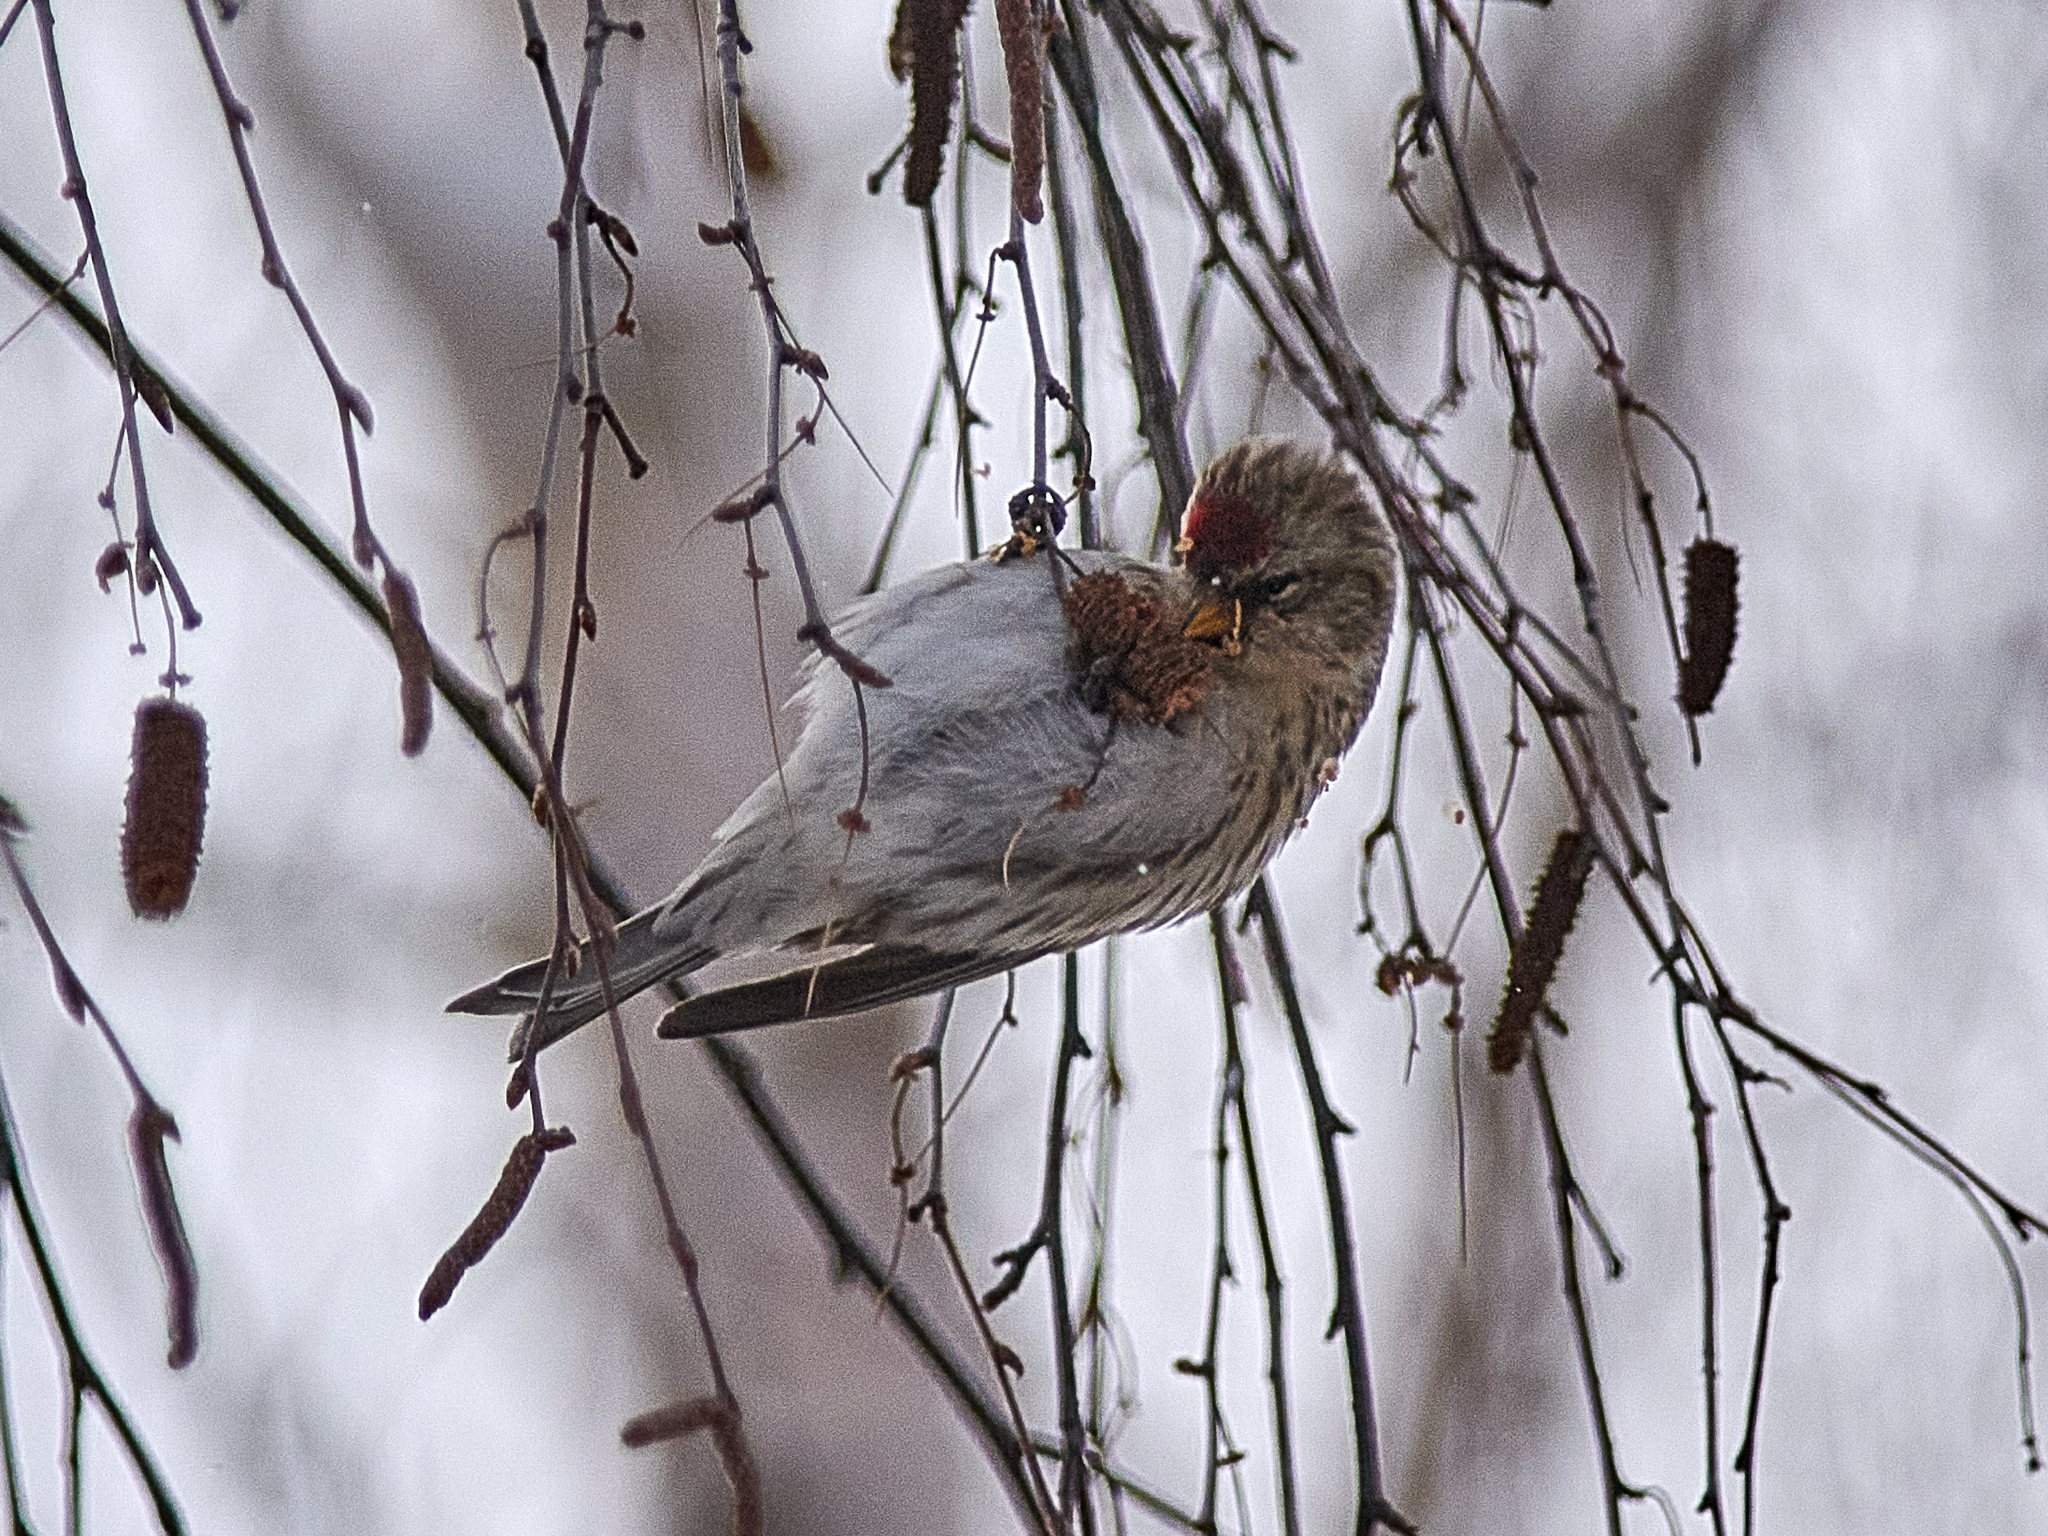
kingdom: Animalia
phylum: Chordata
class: Aves
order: Passeriformes
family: Fringillidae
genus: Acanthis
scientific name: Acanthis flammea
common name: Common redpoll
